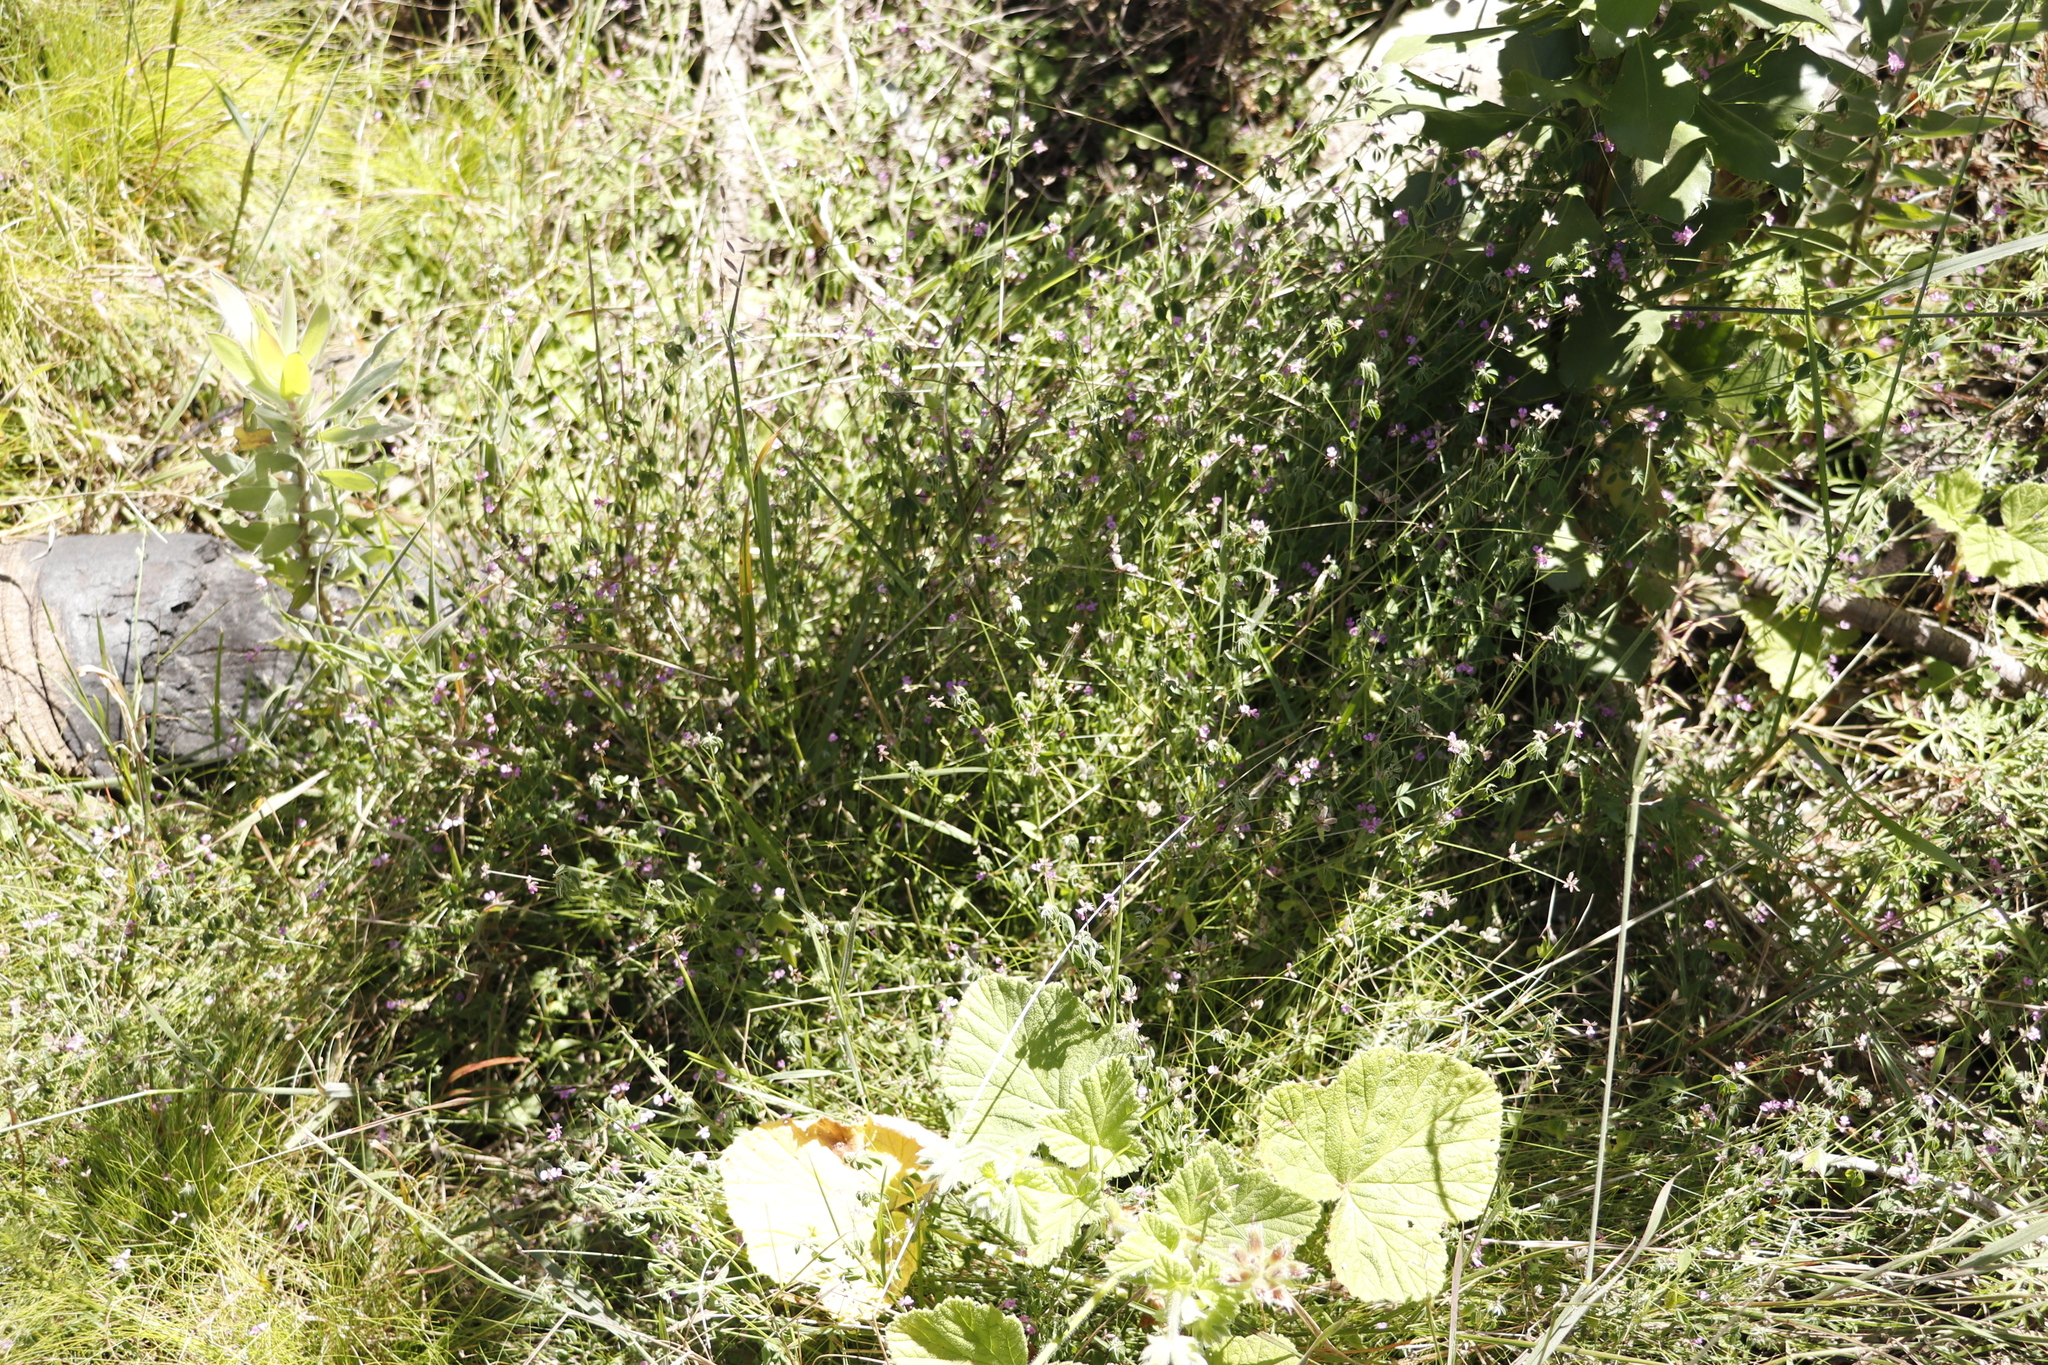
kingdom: Plantae
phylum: Tracheophyta
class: Magnoliopsida
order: Fabales
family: Fabaceae
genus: Indigofera
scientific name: Indigofera
